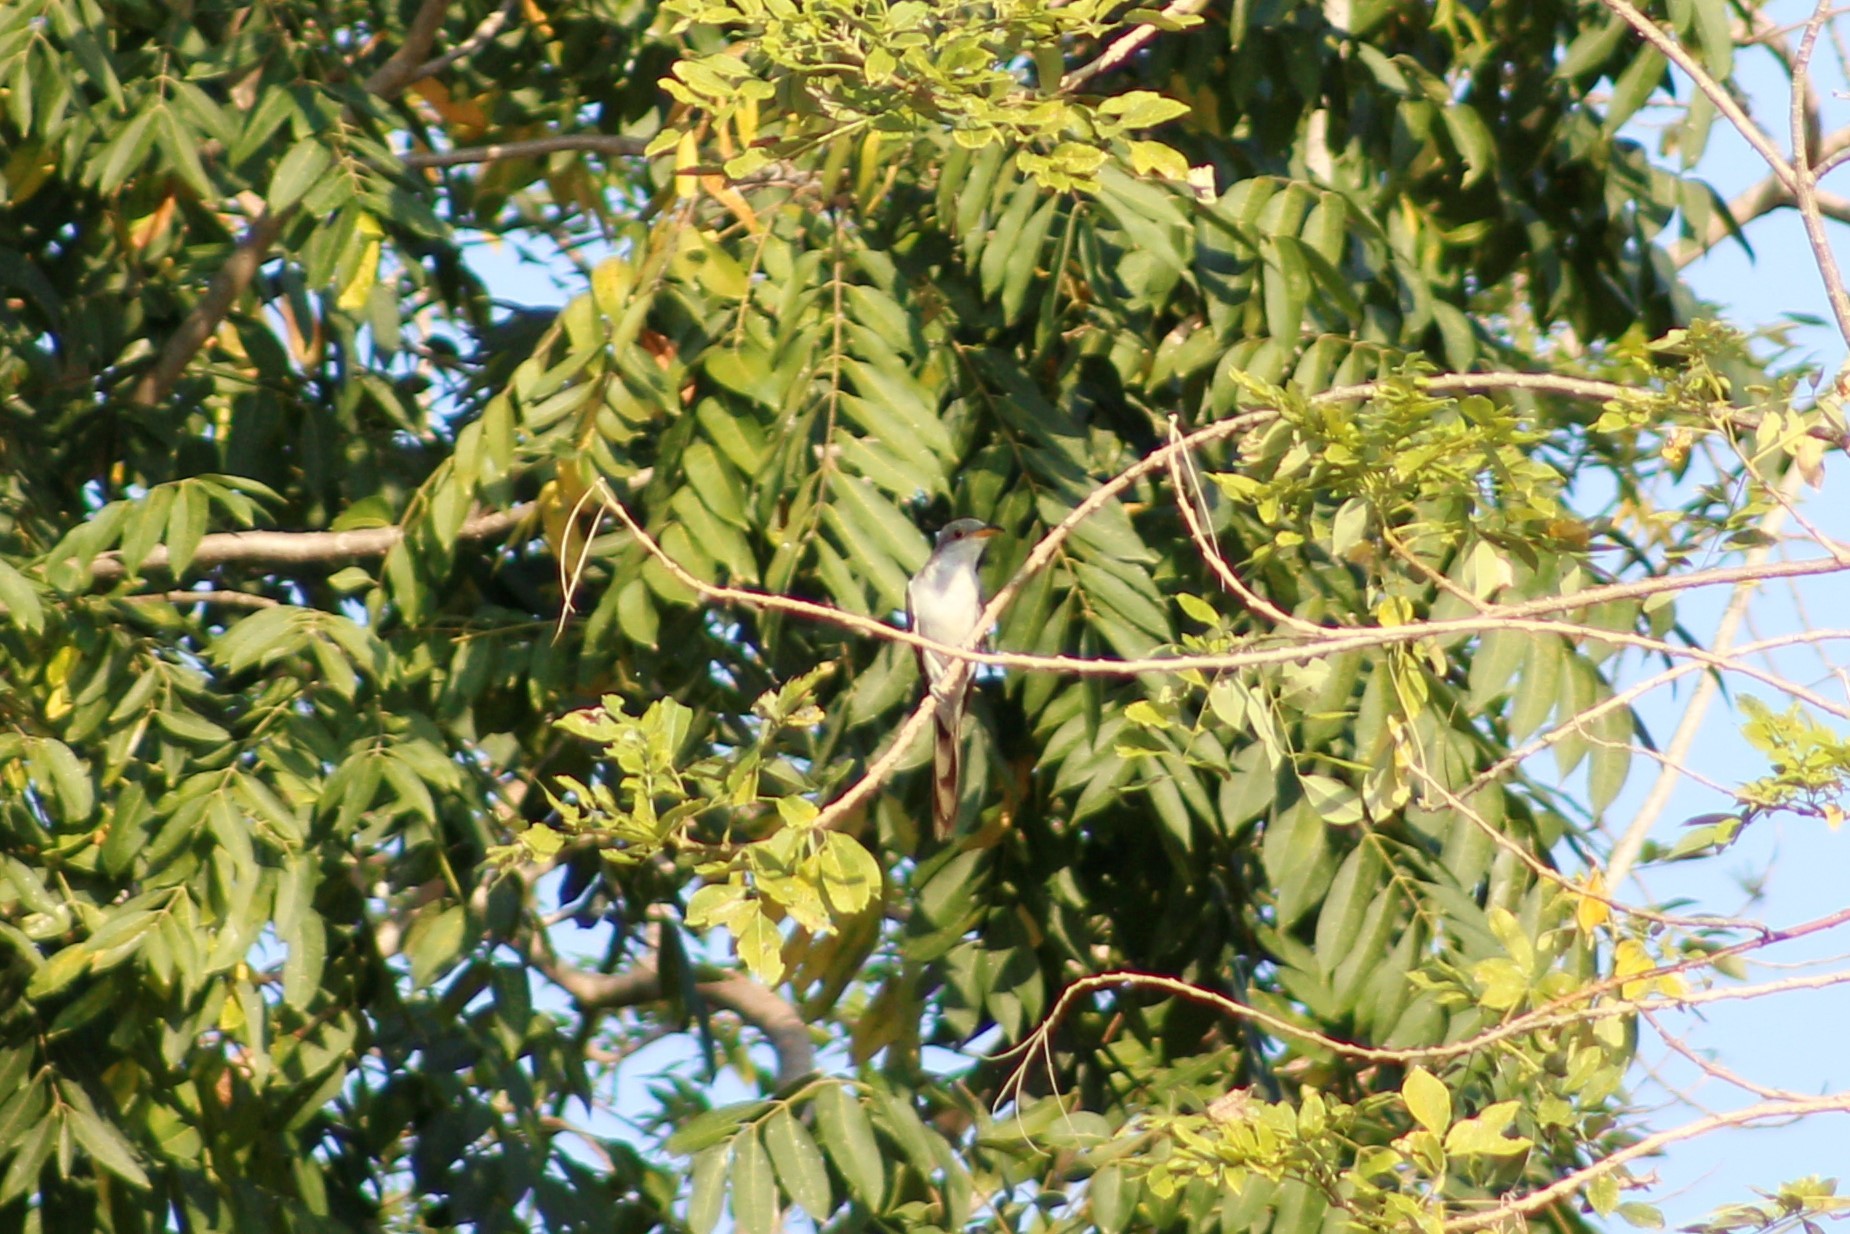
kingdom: Animalia
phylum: Chordata
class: Aves
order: Cuculiformes
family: Cuculidae
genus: Coccyzus
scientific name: Coccyzus americanus
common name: Yellow-billed cuckoo
